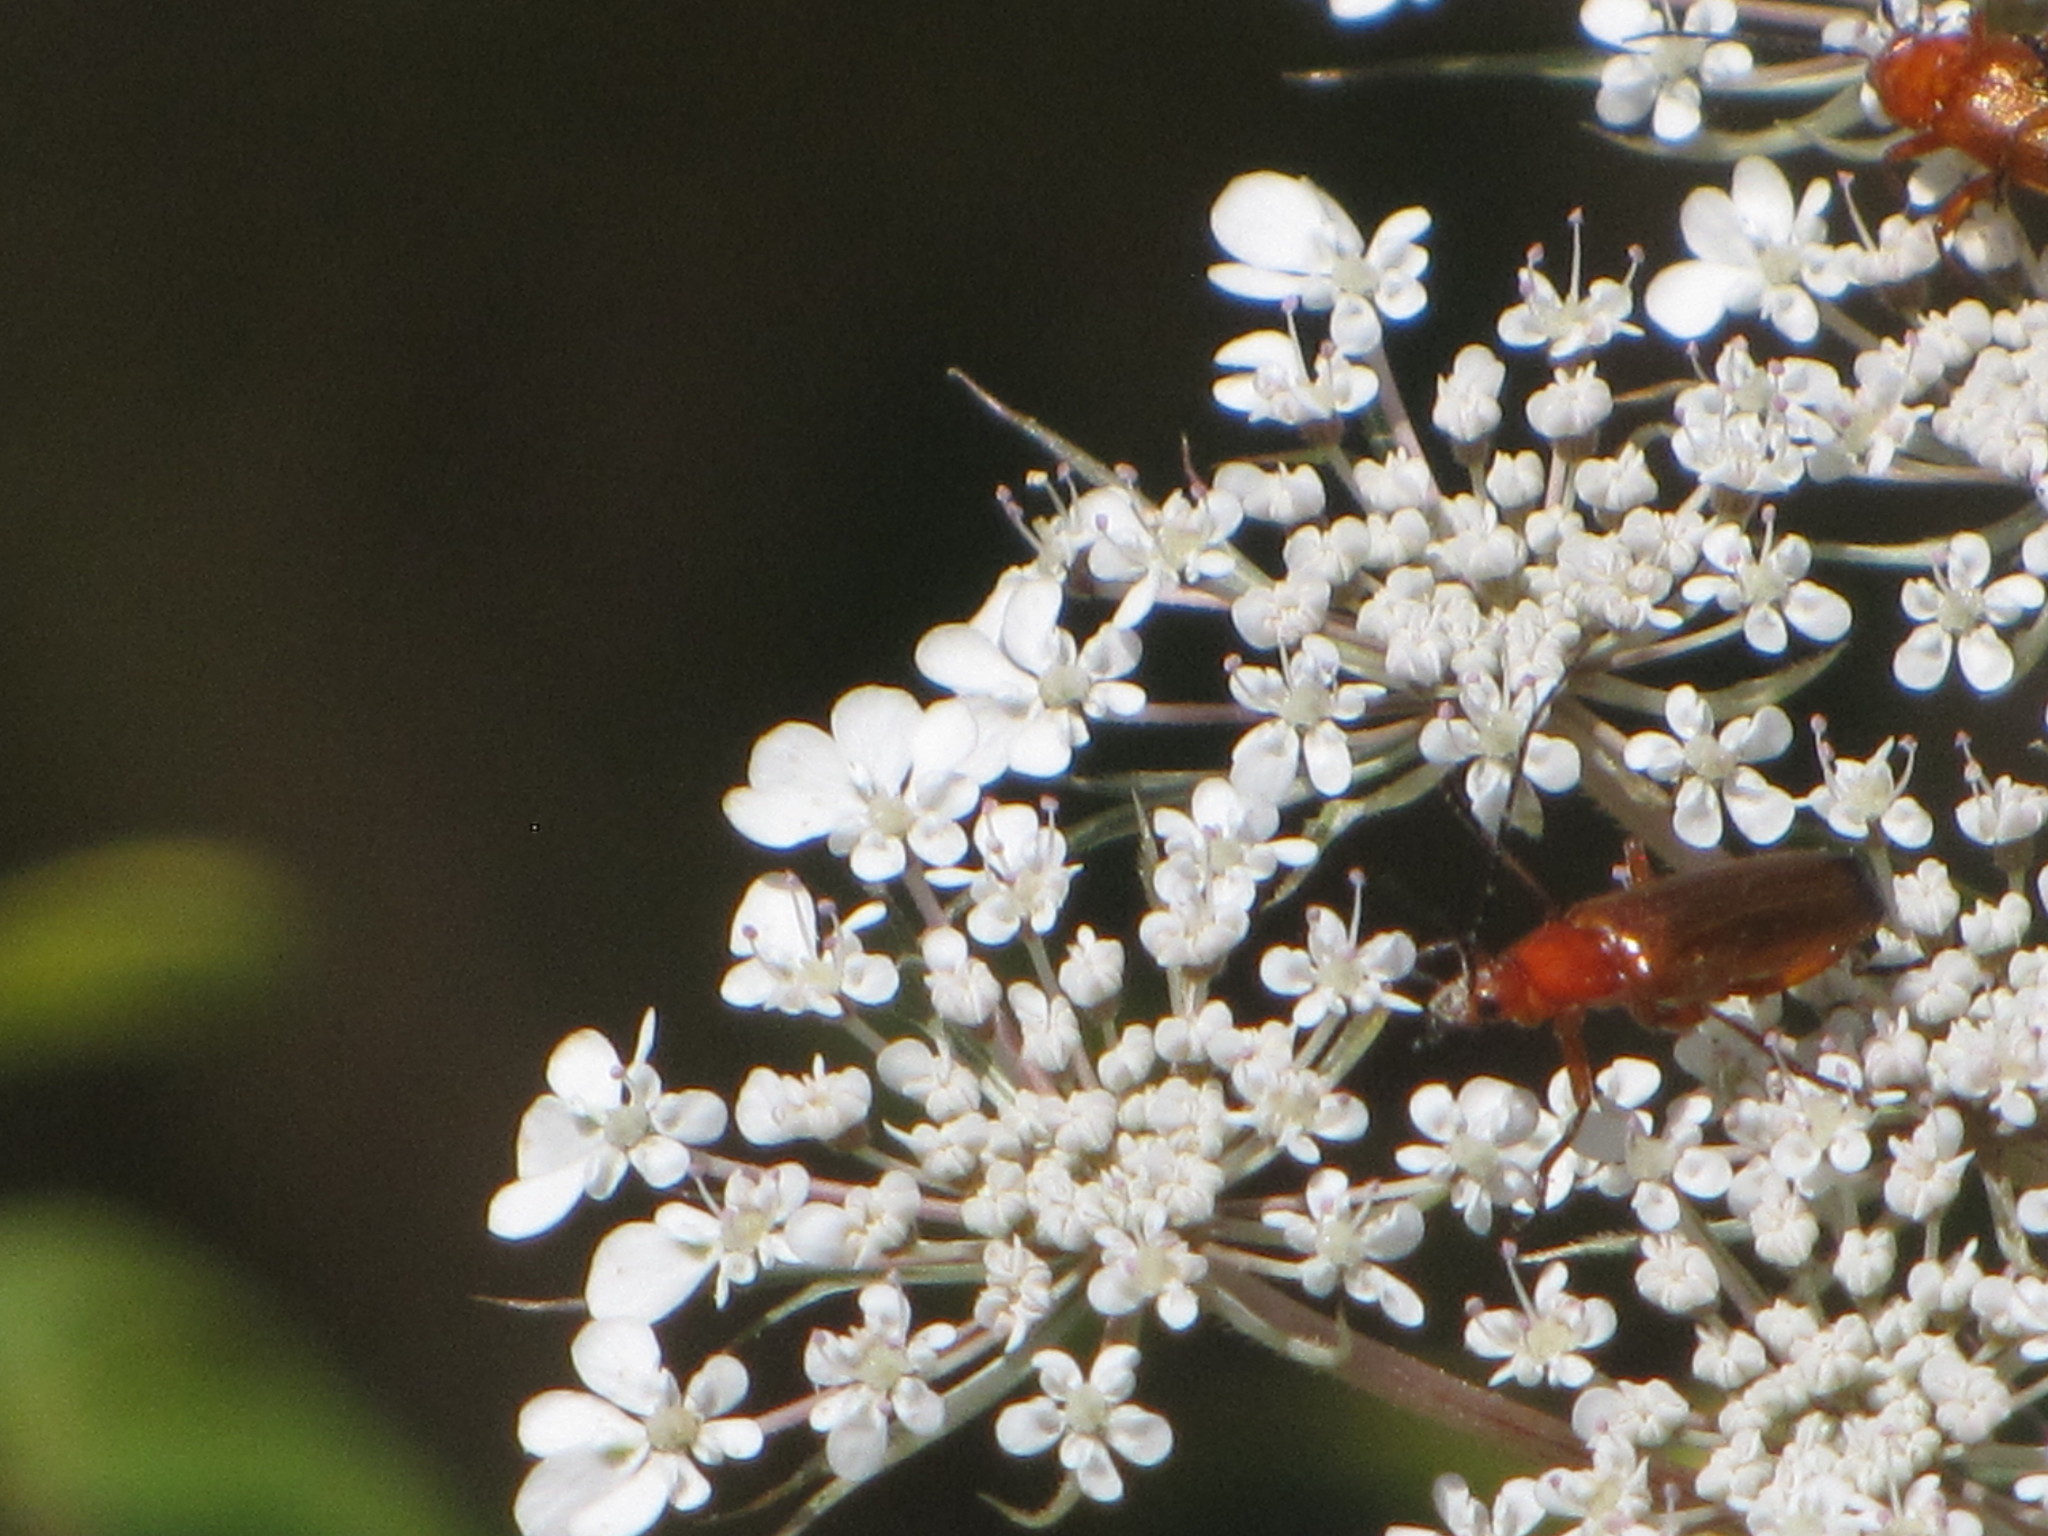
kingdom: Animalia
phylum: Arthropoda
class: Insecta
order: Coleoptera
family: Cantharidae
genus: Rhagonycha
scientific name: Rhagonycha fulva
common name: Common red soldier beetle
